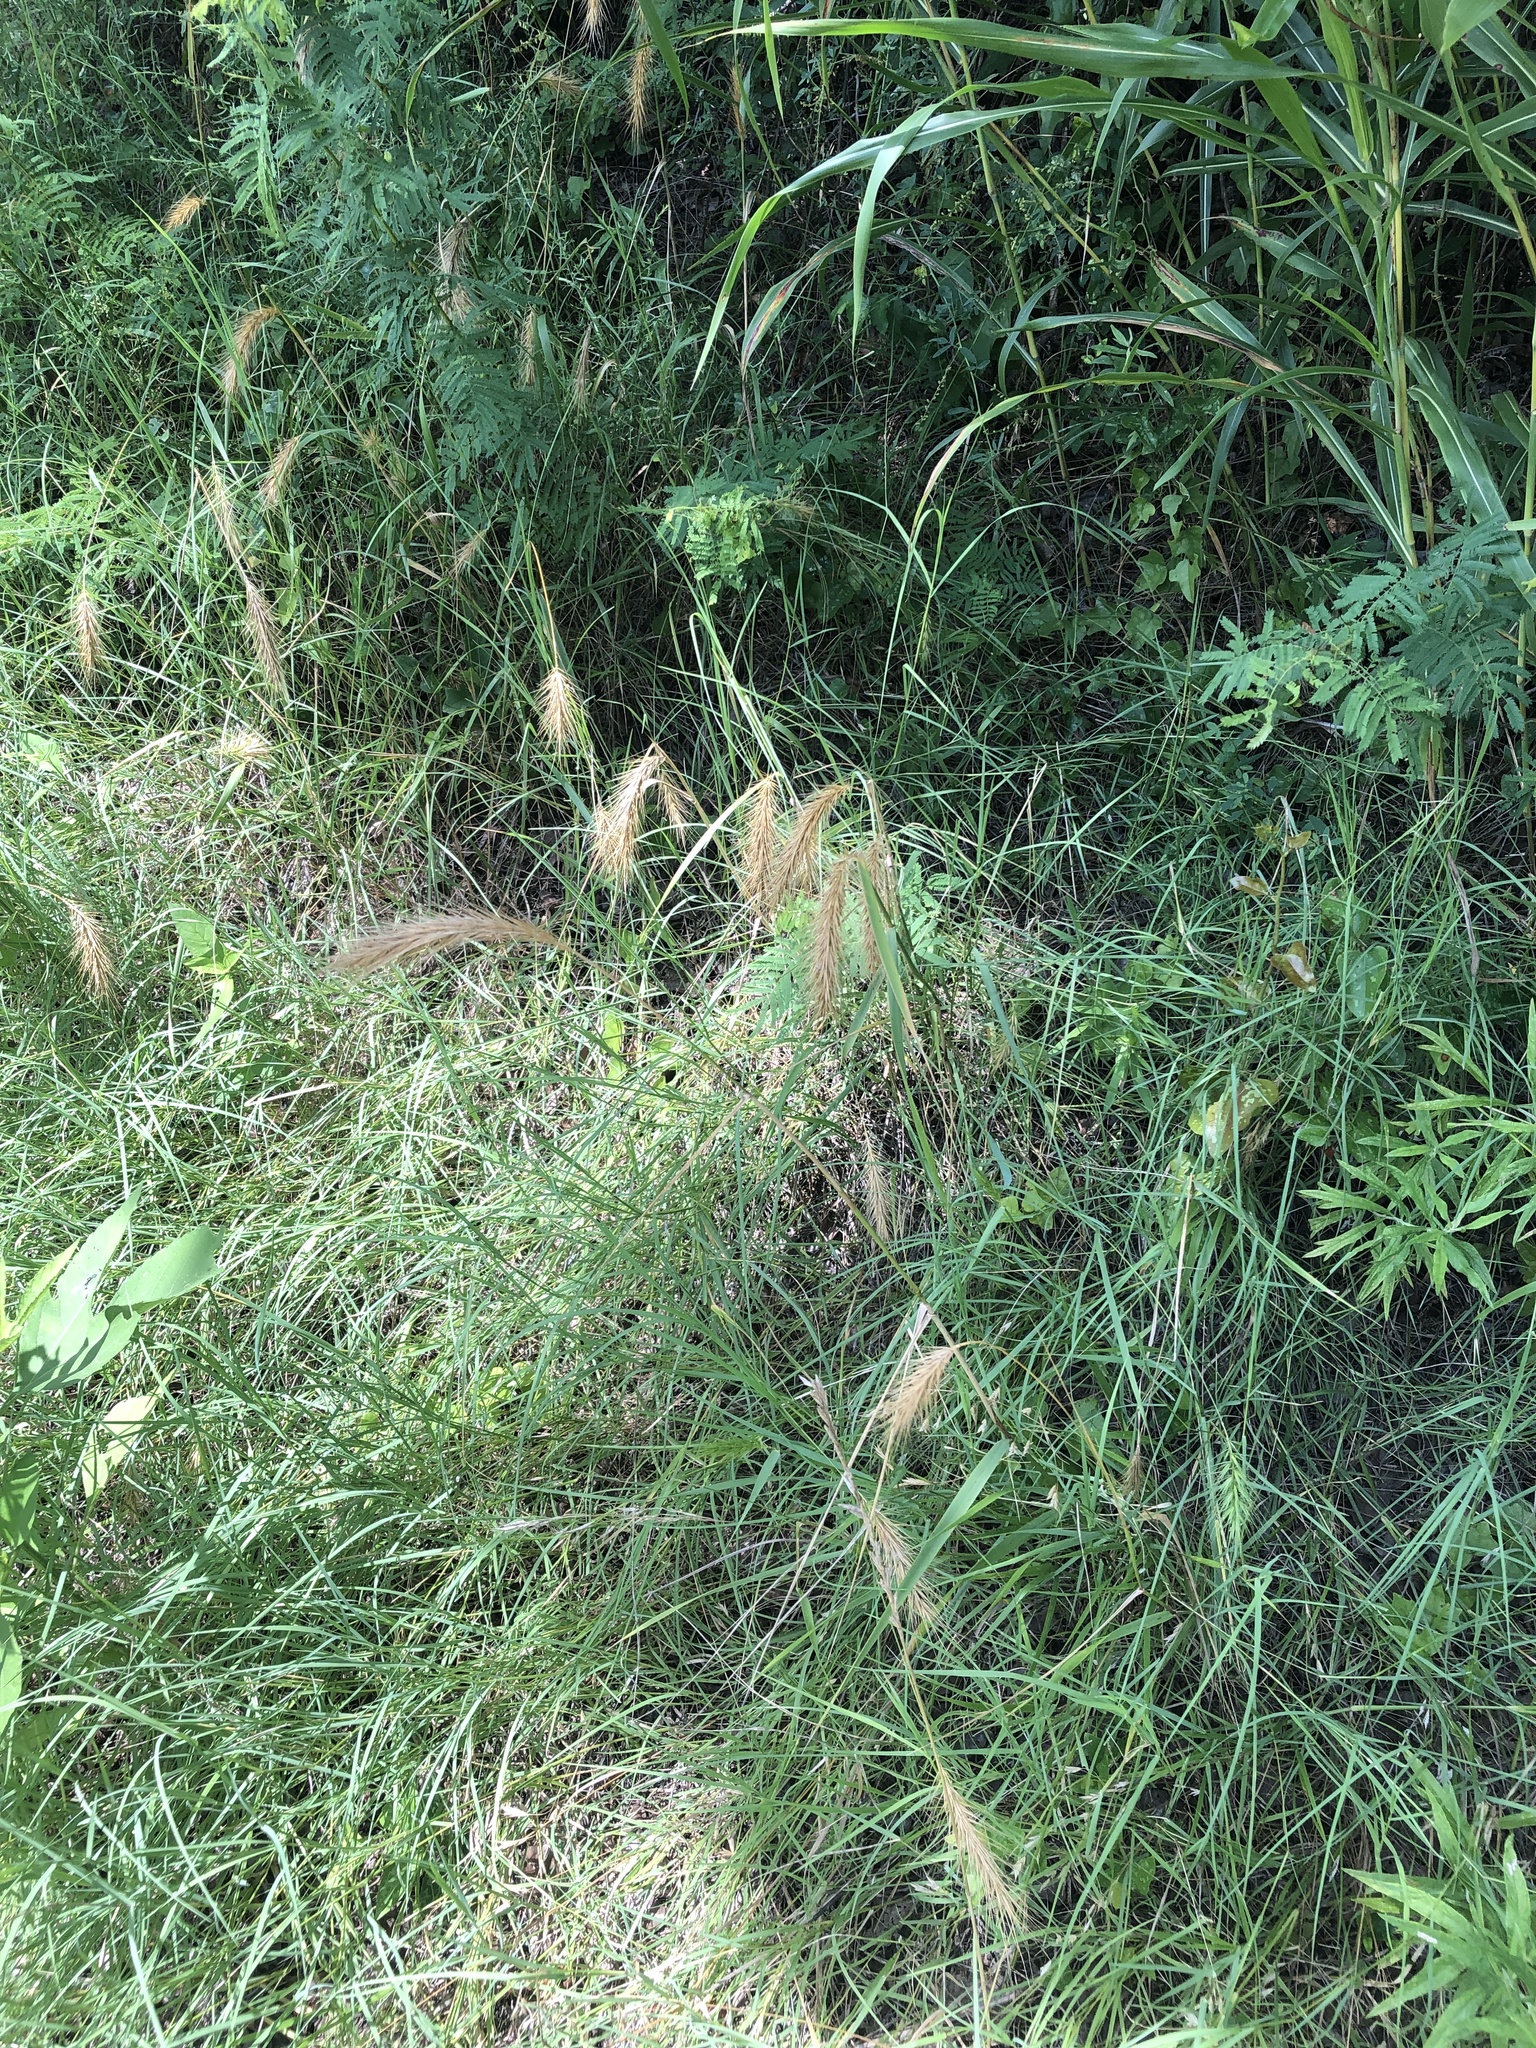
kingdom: Plantae
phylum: Tracheophyta
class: Liliopsida
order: Poales
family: Poaceae
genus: Elymus
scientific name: Elymus canadensis
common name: Canada wild rye
